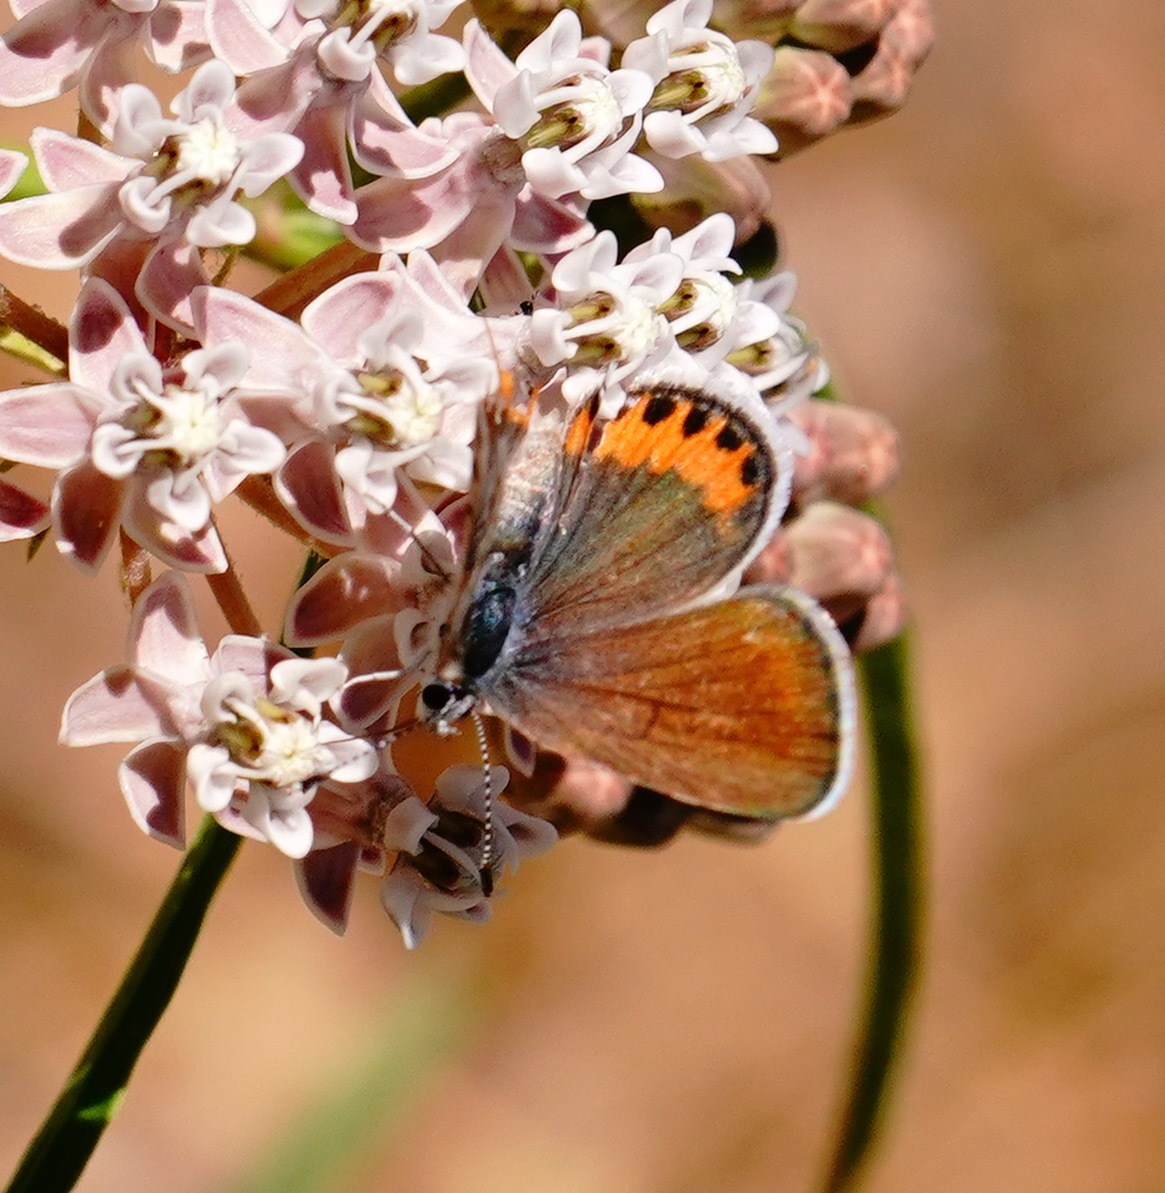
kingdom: Animalia
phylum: Arthropoda
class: Insecta
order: Lepidoptera
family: Lycaenidae
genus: Icaricia
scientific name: Icaricia acmon
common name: Acmon blue
